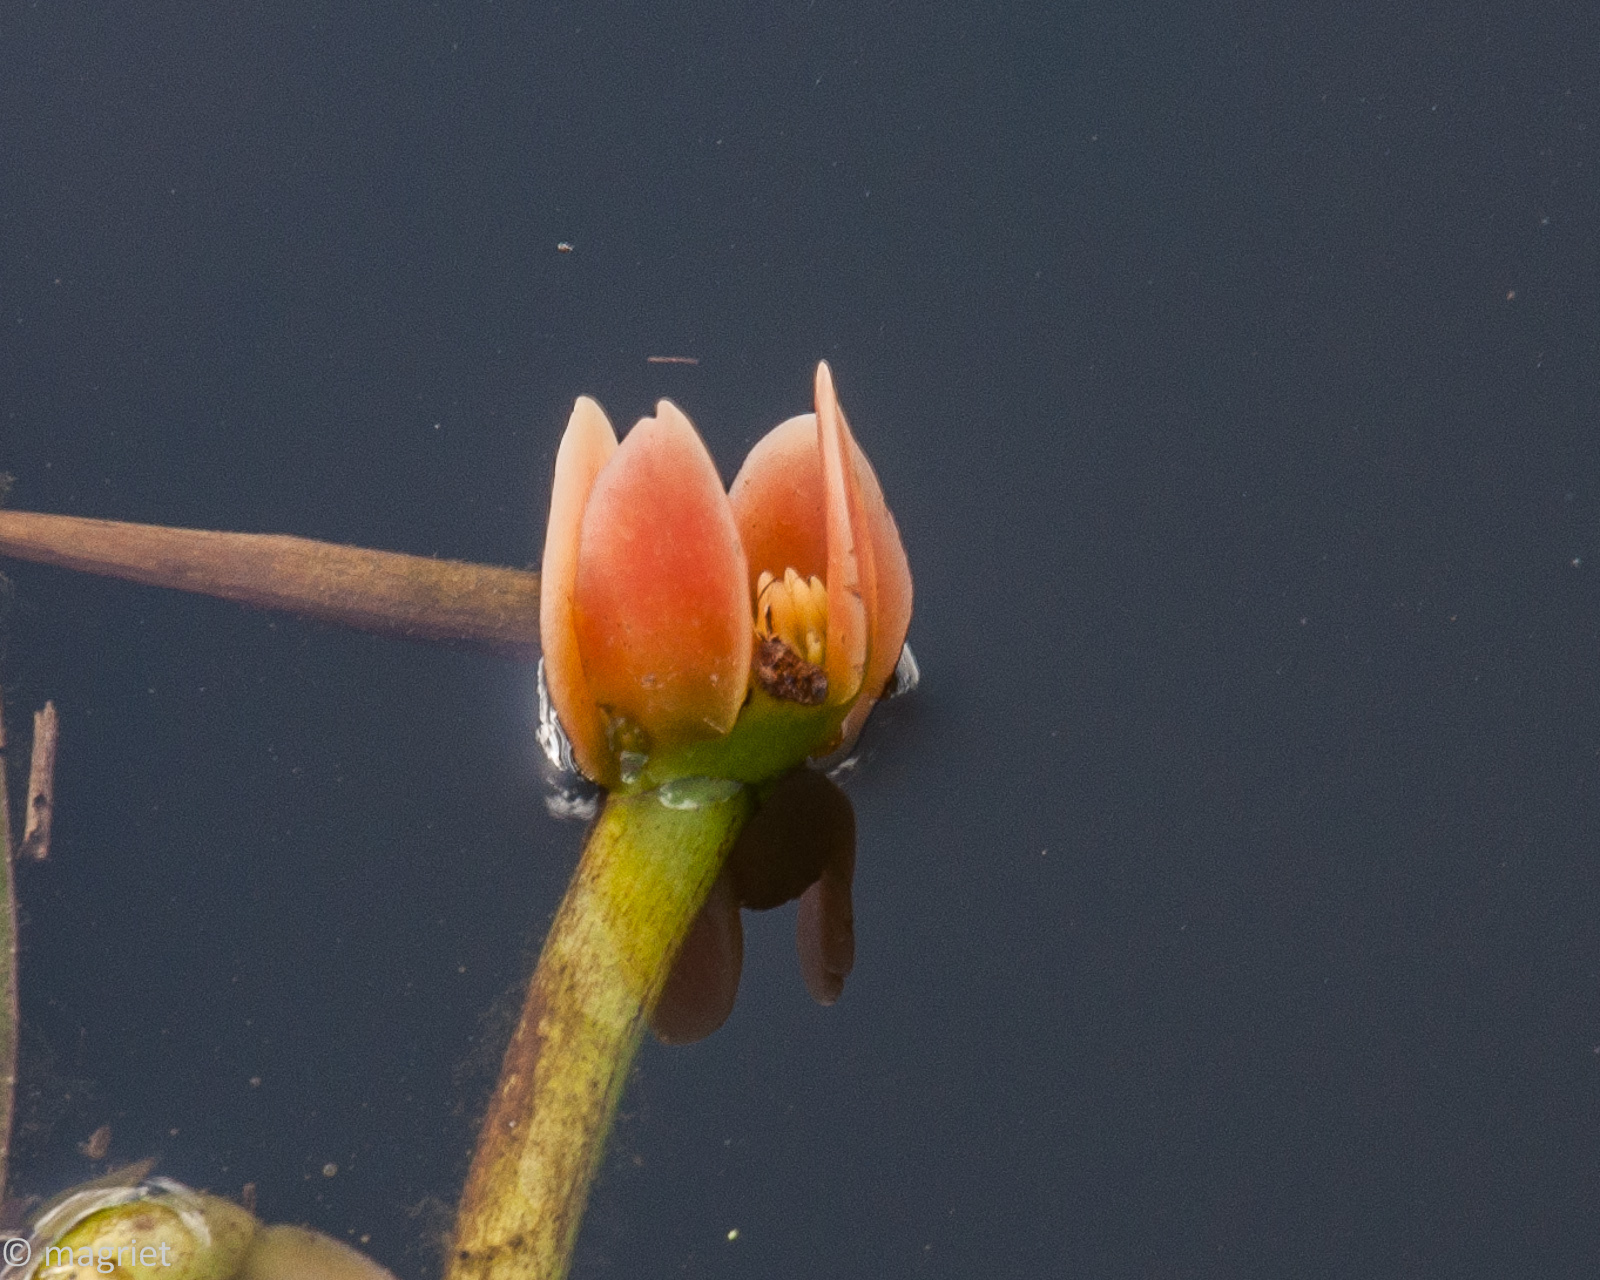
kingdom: Plantae
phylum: Tracheophyta
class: Liliopsida
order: Alismatales
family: Aponogetonaceae
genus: Aponogeton
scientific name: Aponogeton distachyos
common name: Cape-pondweed
